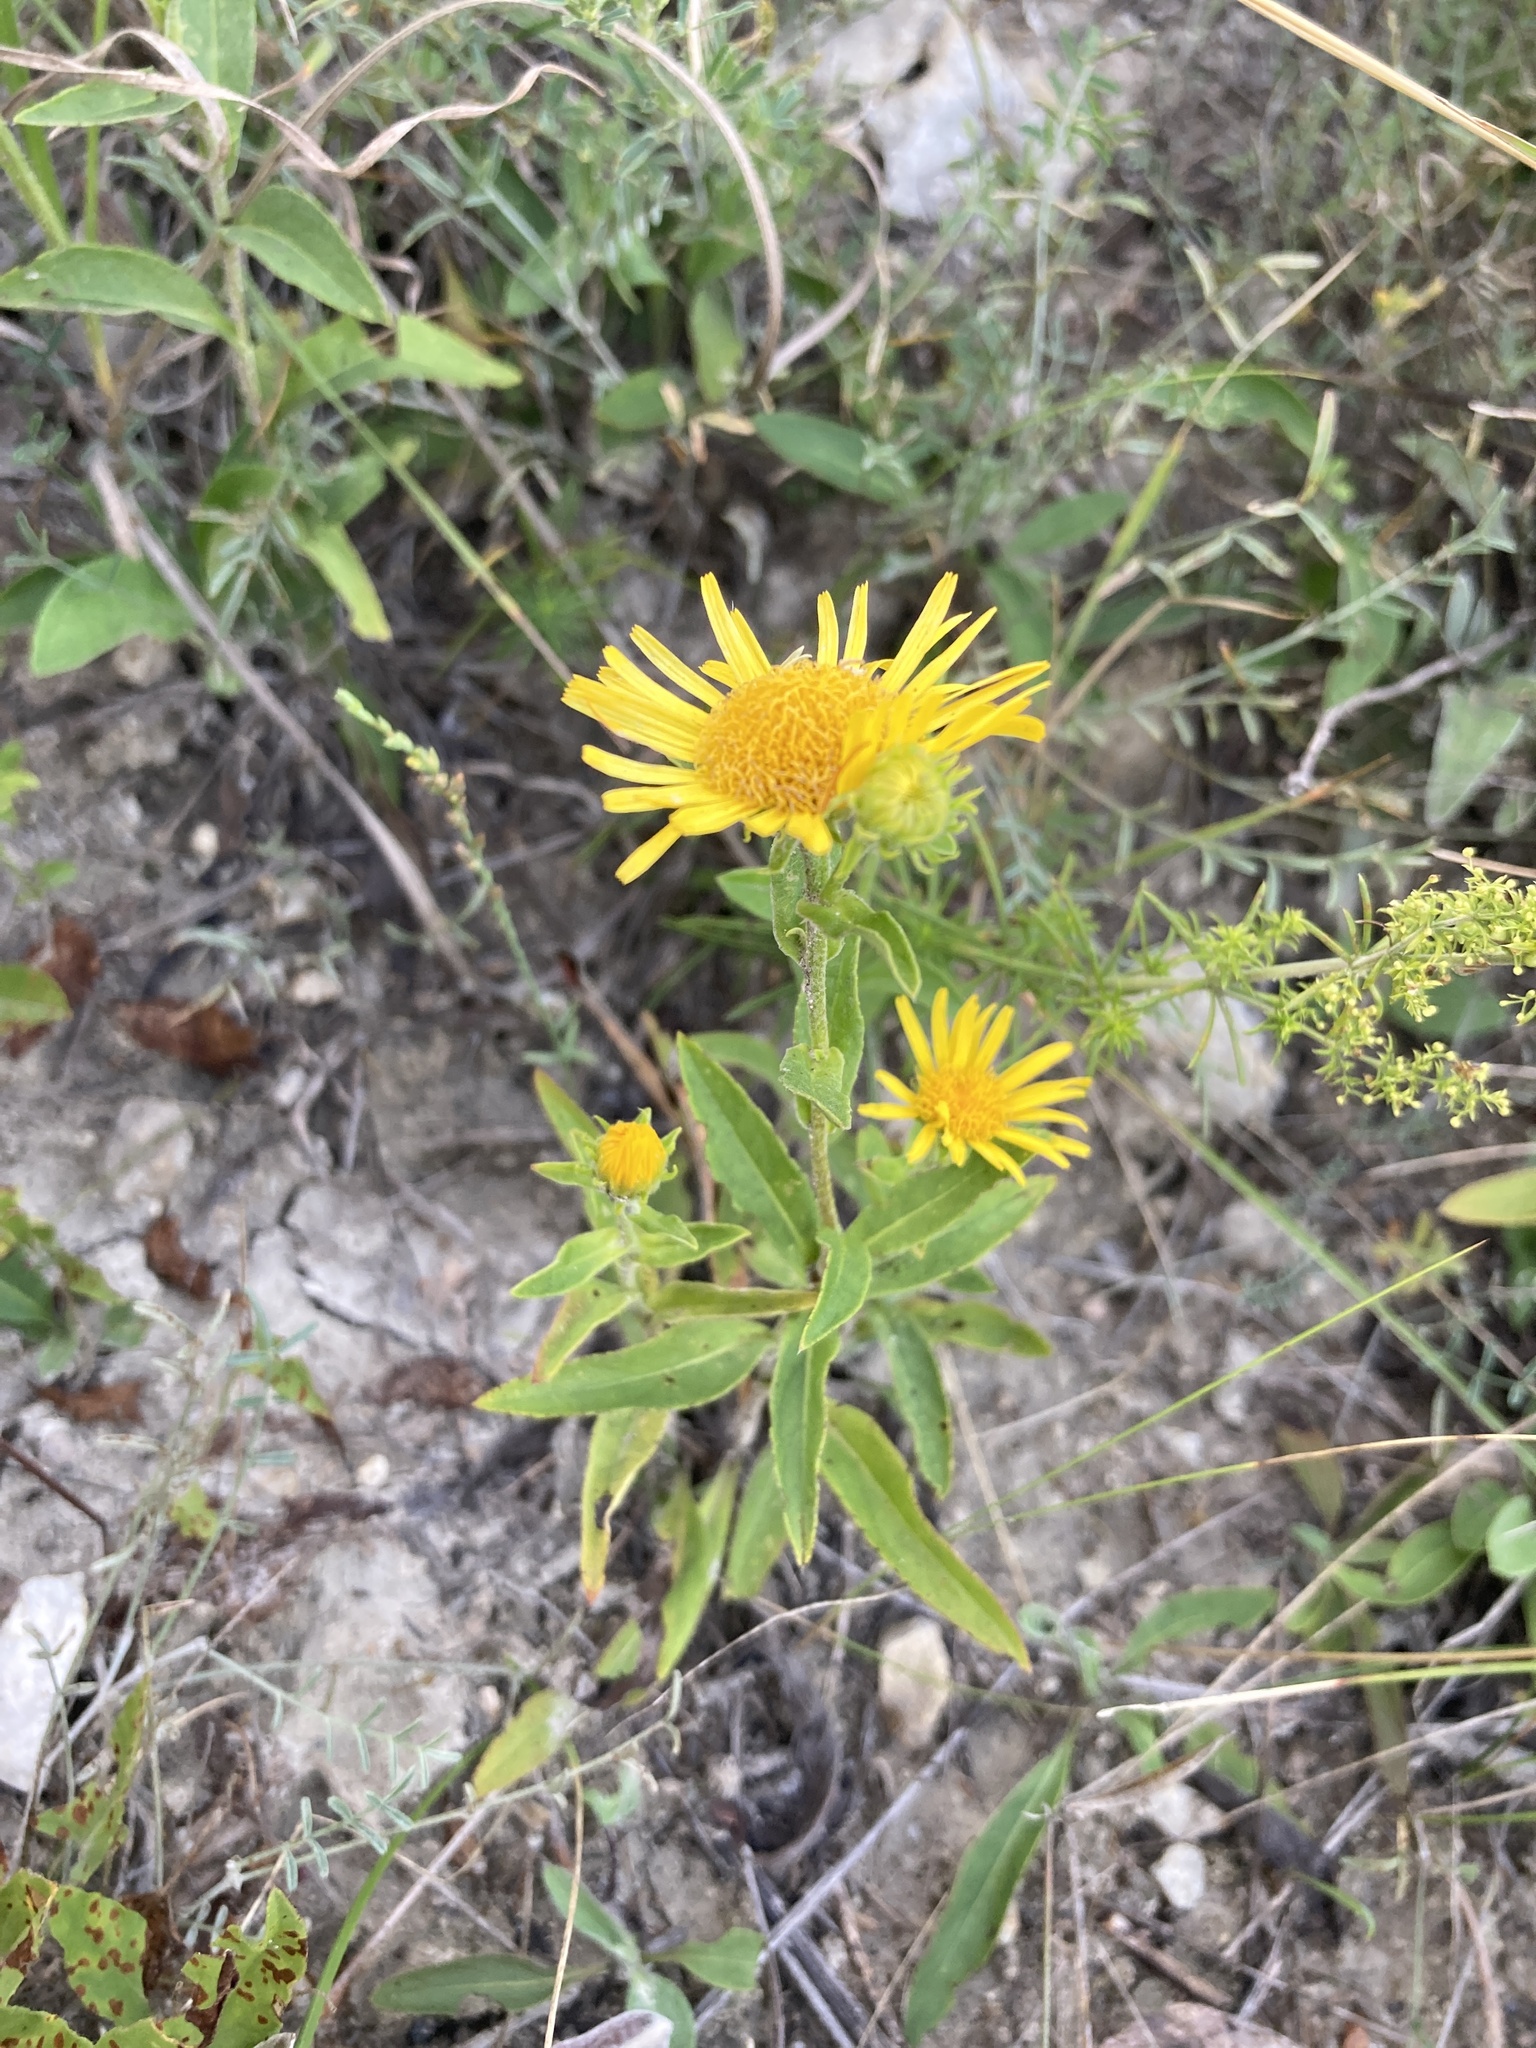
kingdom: Plantae
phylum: Tracheophyta
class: Magnoliopsida
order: Asterales
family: Asteraceae
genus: Pentanema
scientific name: Pentanema britannicum
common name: British elecampane
